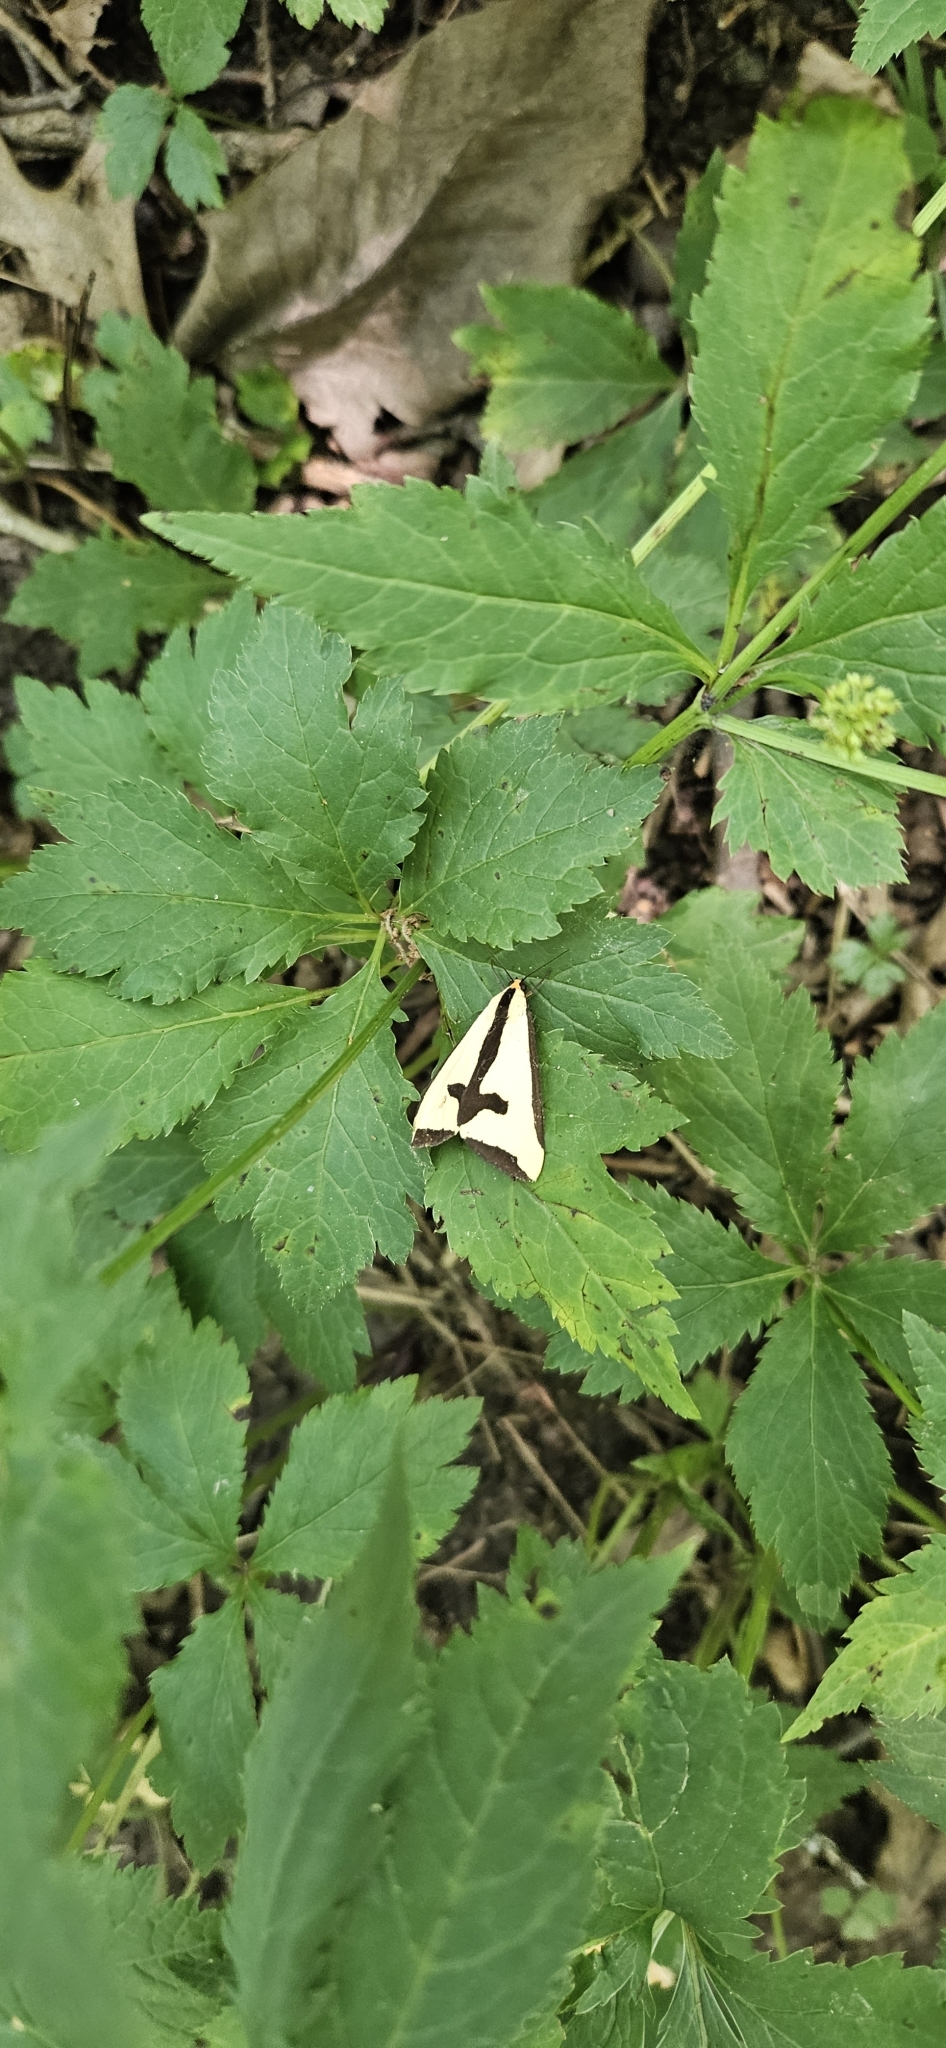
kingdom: Animalia
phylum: Arthropoda
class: Insecta
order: Lepidoptera
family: Erebidae
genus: Haploa
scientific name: Haploa clymene
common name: Clymene moth
